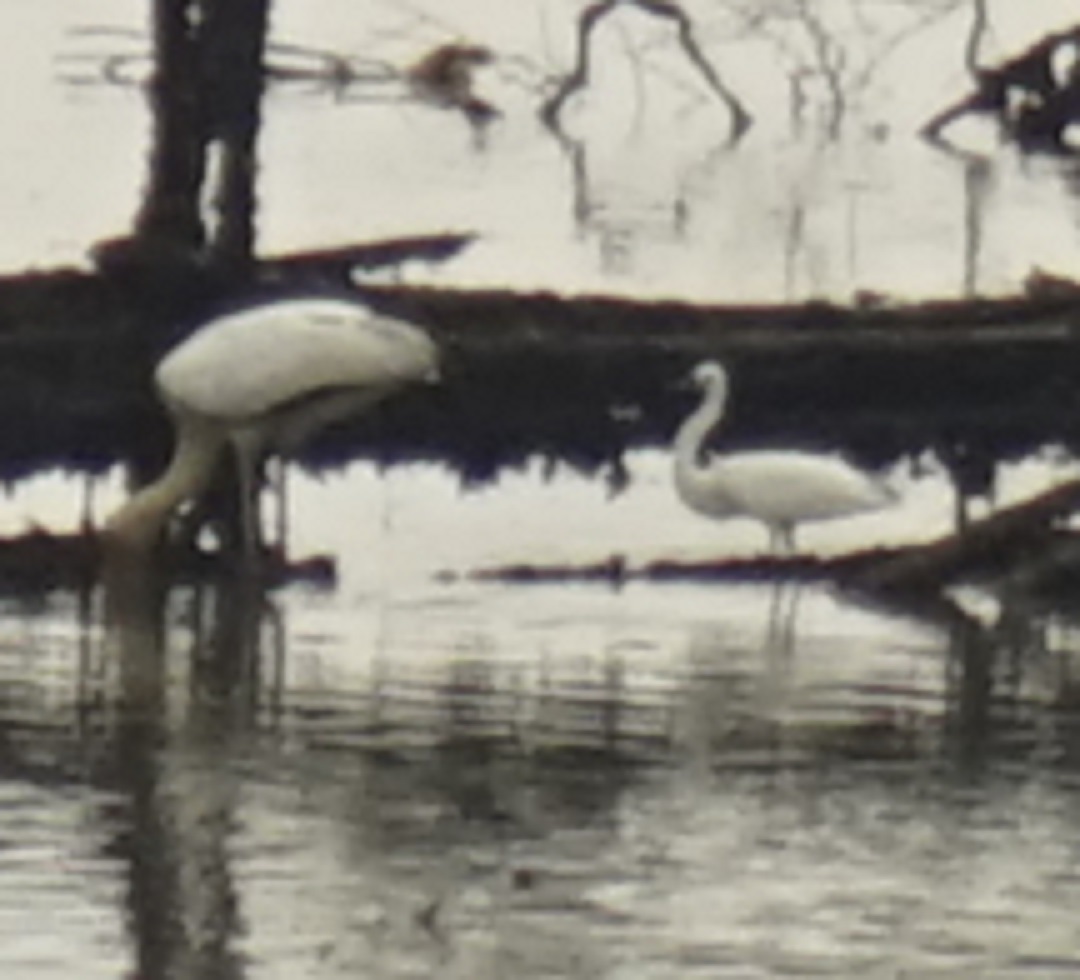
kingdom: Animalia
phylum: Chordata
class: Aves
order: Pelecaniformes
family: Ardeidae
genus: Egretta
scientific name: Egretta garzetta
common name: Little egret
